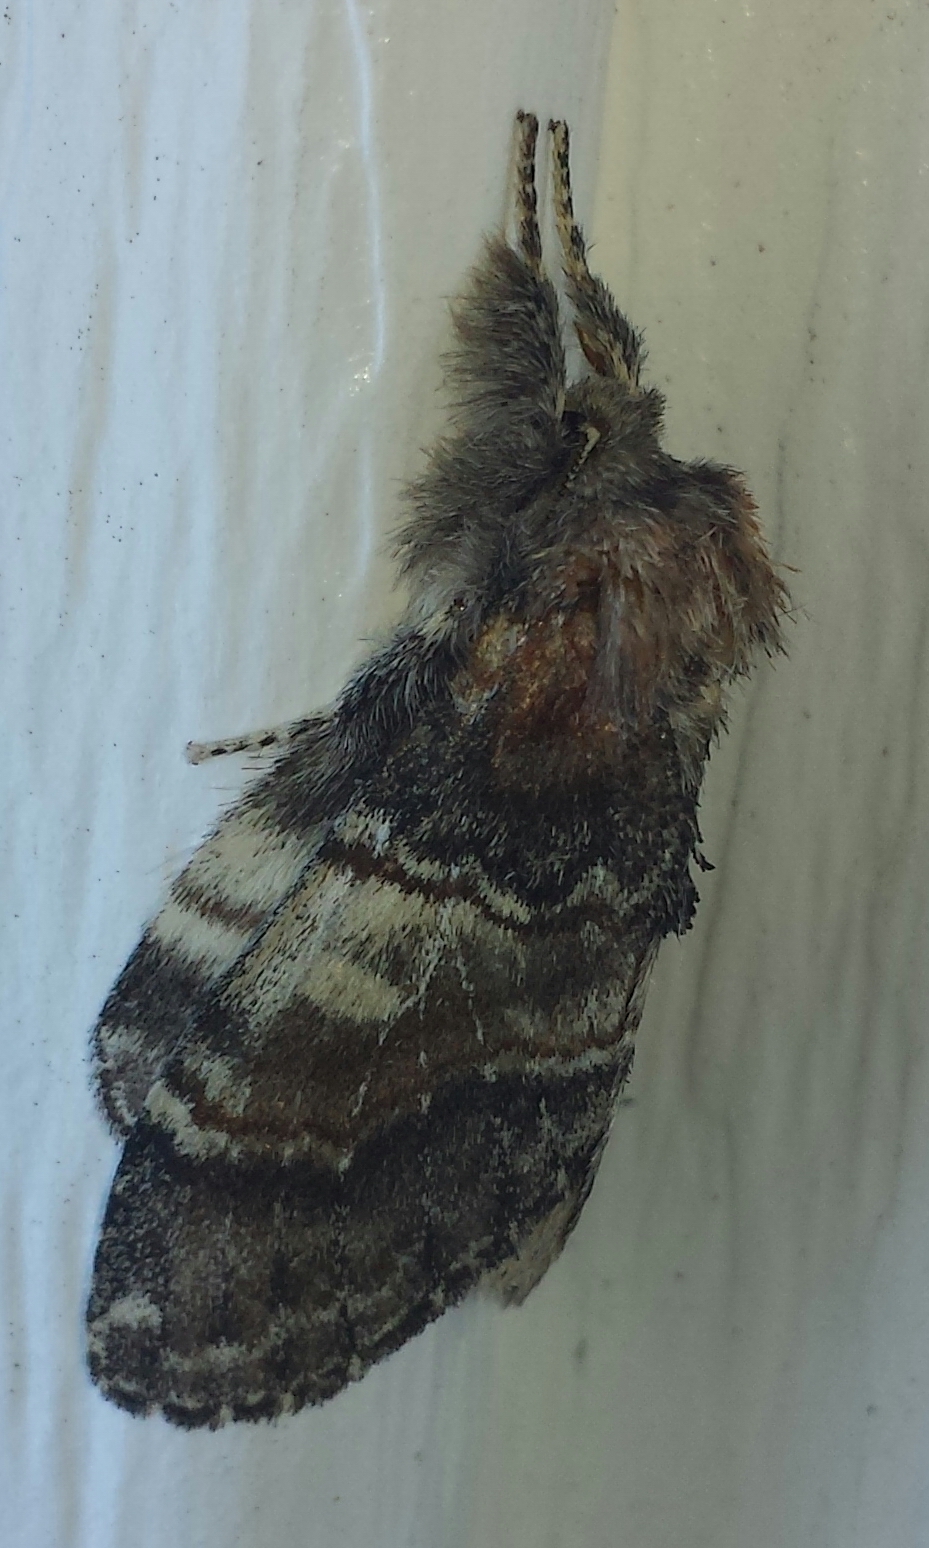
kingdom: Animalia
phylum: Arthropoda
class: Insecta
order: Lepidoptera
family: Notodontidae
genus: Peridea
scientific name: Peridea ferruginea
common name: Chocolate prominent
